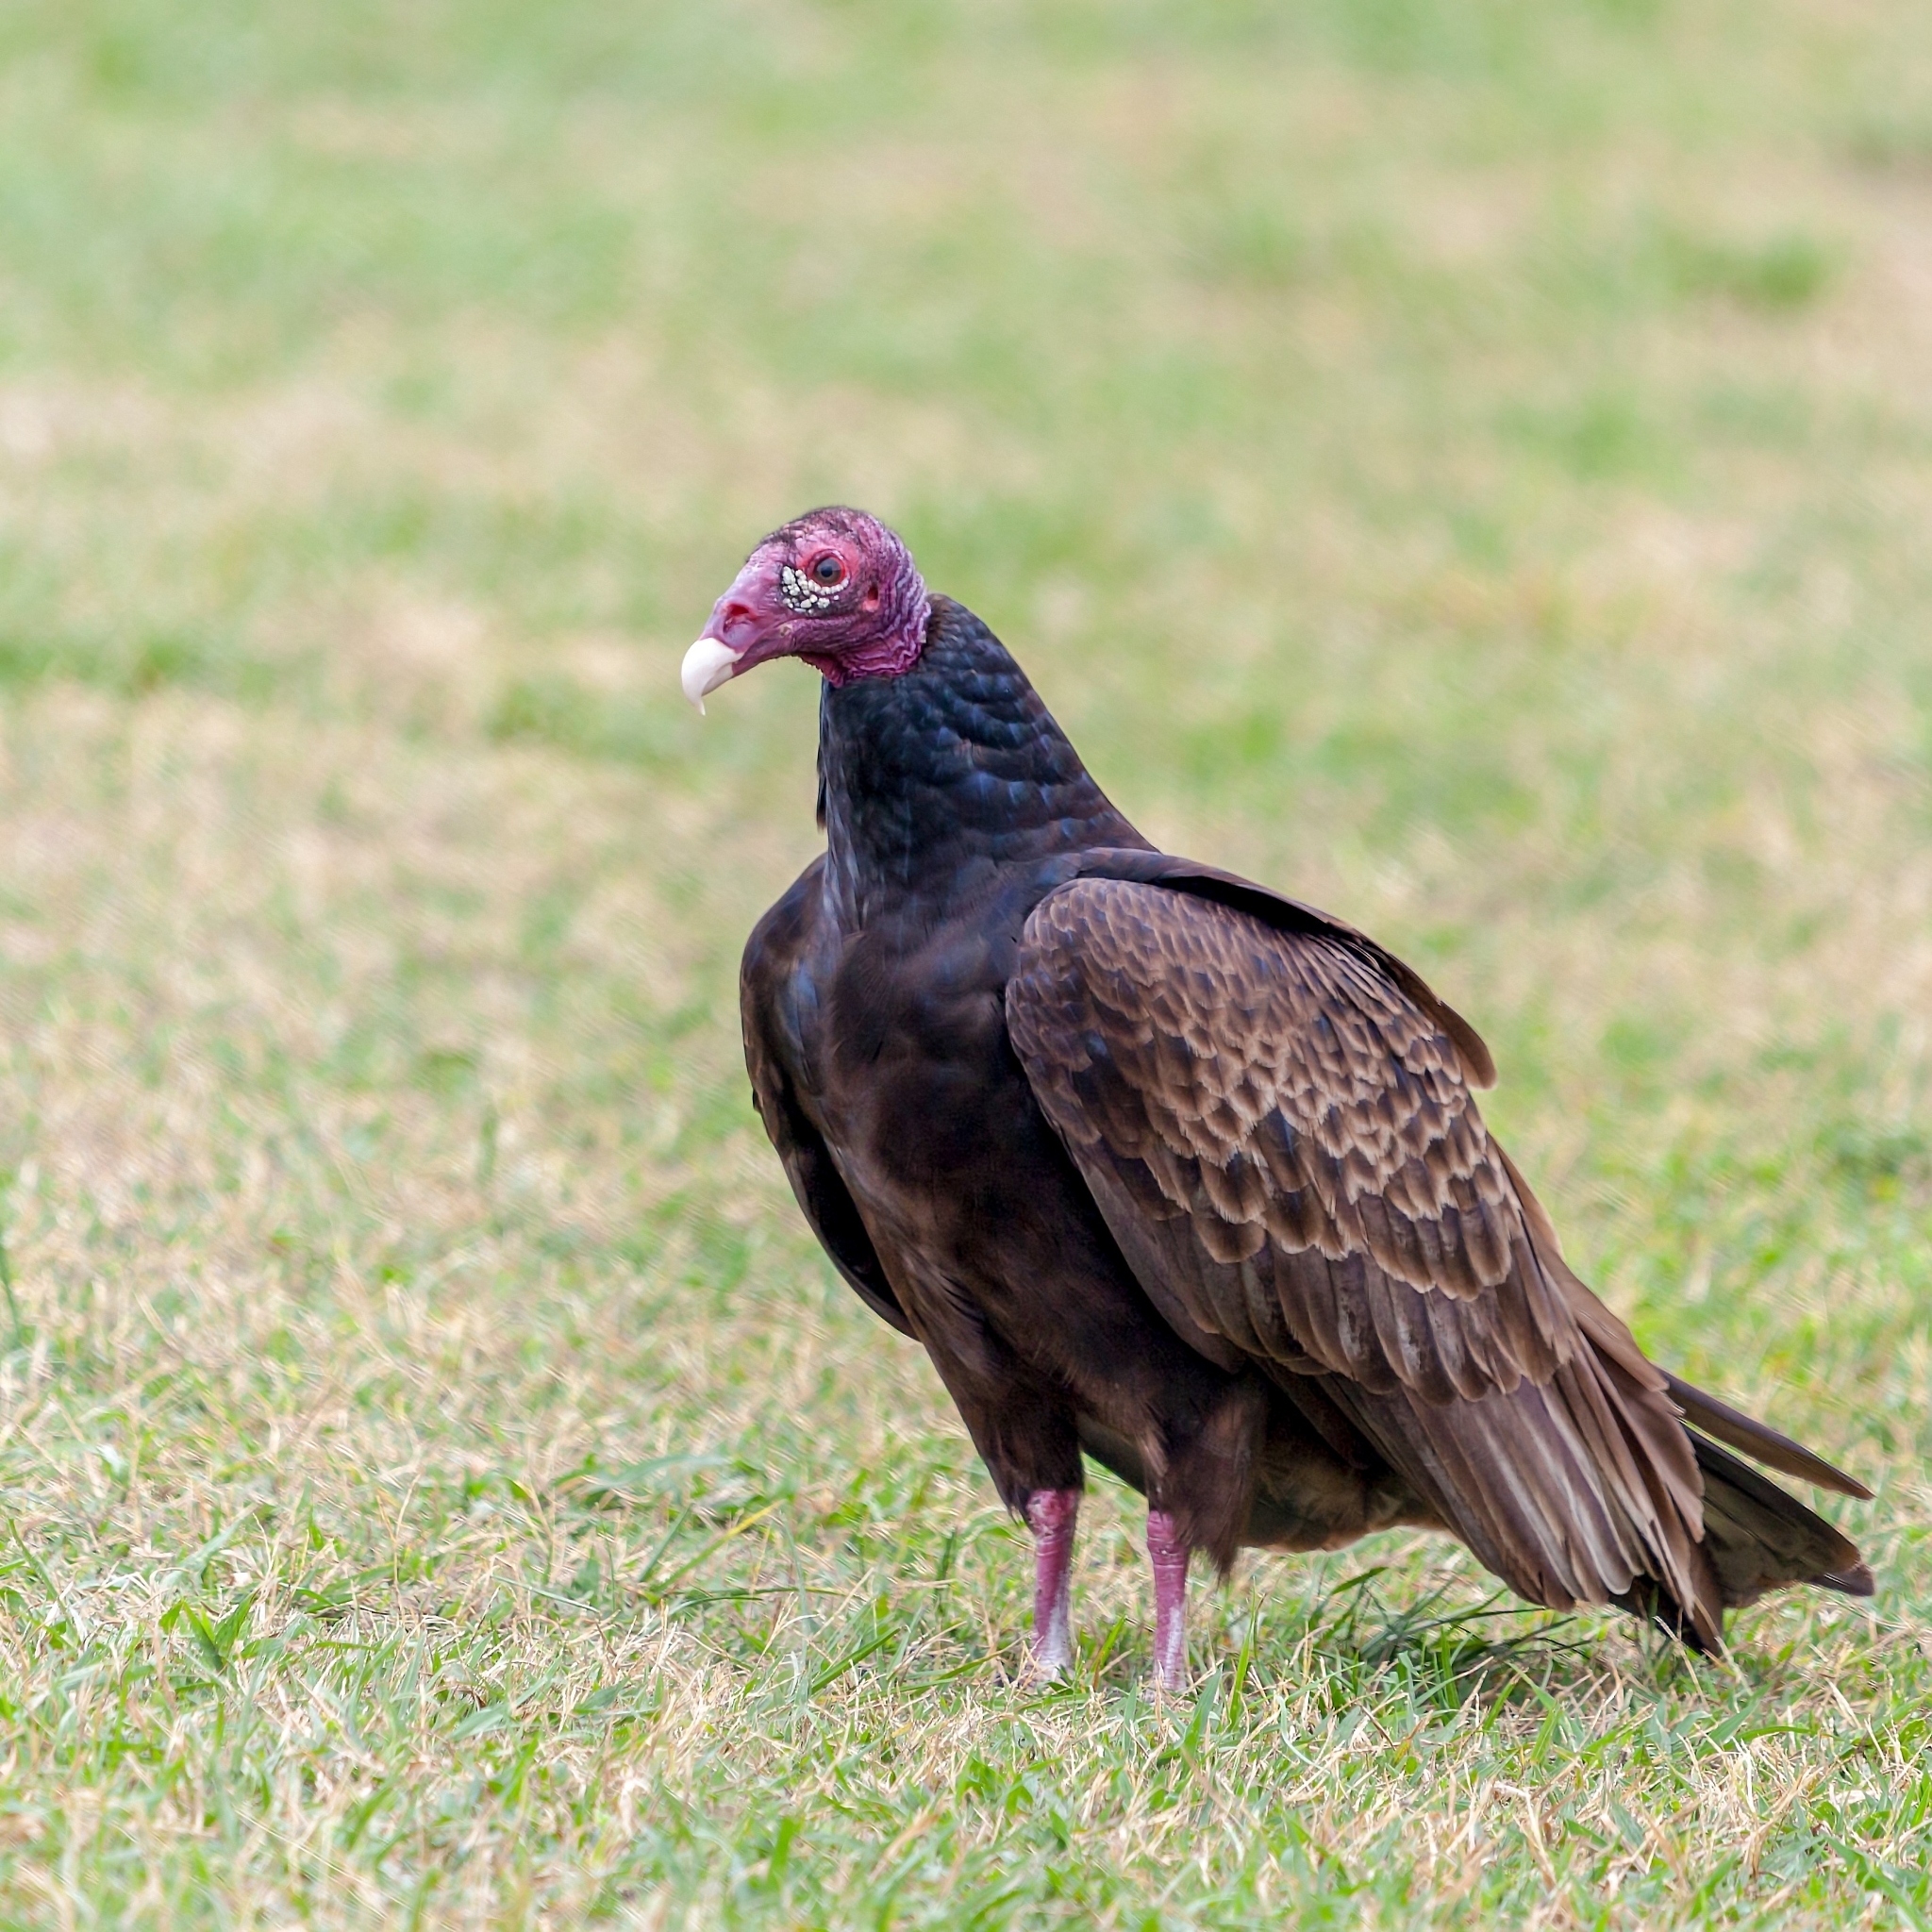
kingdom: Animalia
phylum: Chordata
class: Aves
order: Accipitriformes
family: Cathartidae
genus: Cathartes
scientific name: Cathartes aura
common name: Turkey vulture
